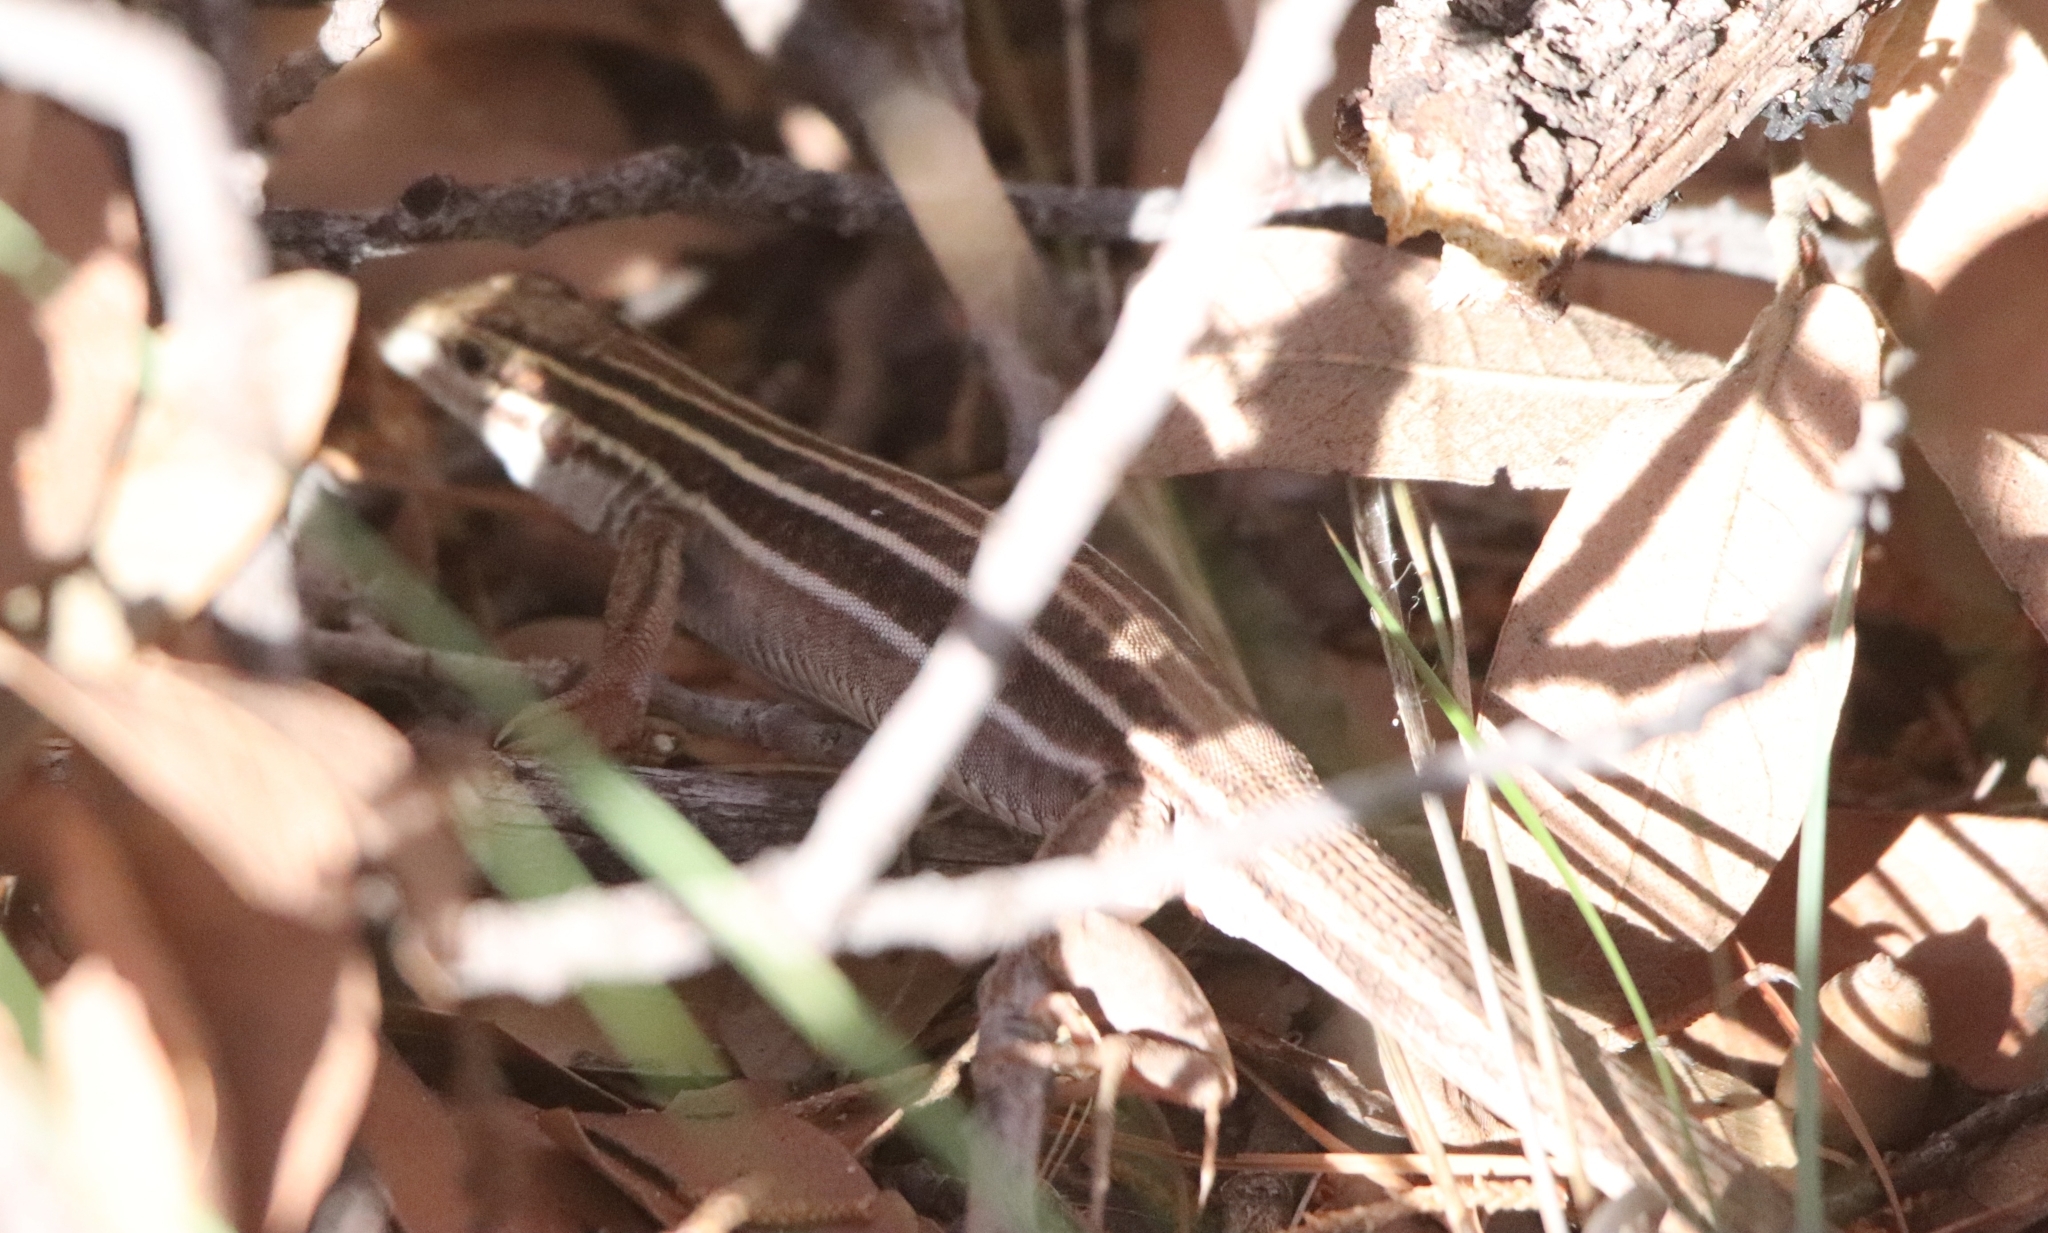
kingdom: Animalia
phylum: Chordata
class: Squamata
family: Teiidae
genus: Aspidoscelis
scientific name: Aspidoscelis sonorae
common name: Sonoran spotted whiptail
